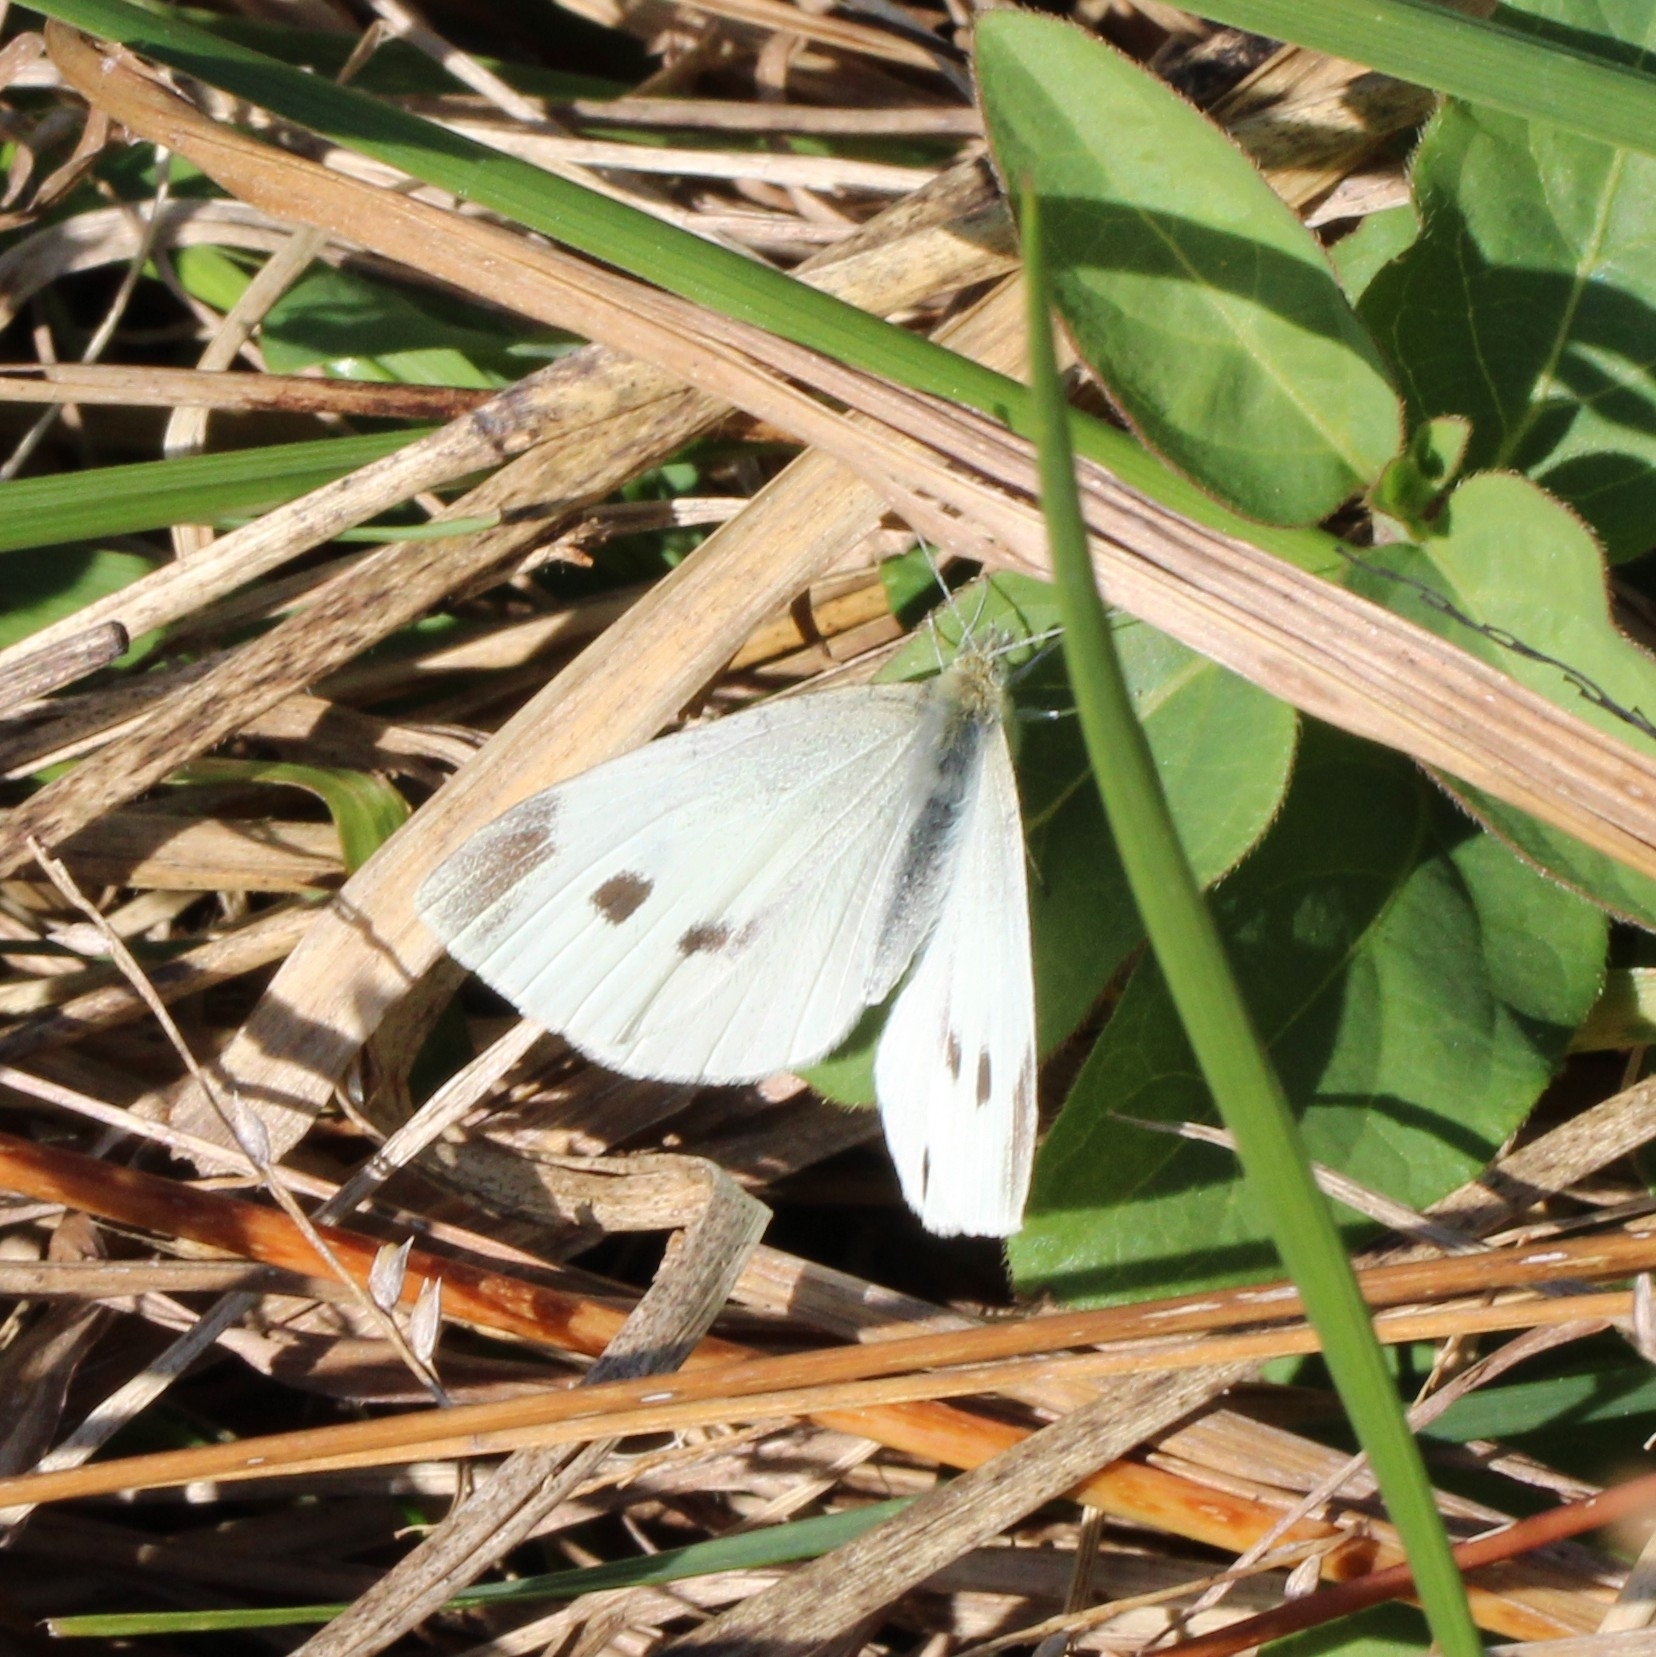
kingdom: Animalia
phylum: Arthropoda
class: Insecta
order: Lepidoptera
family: Pieridae
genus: Pieris
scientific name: Pieris rapae
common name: Small white
